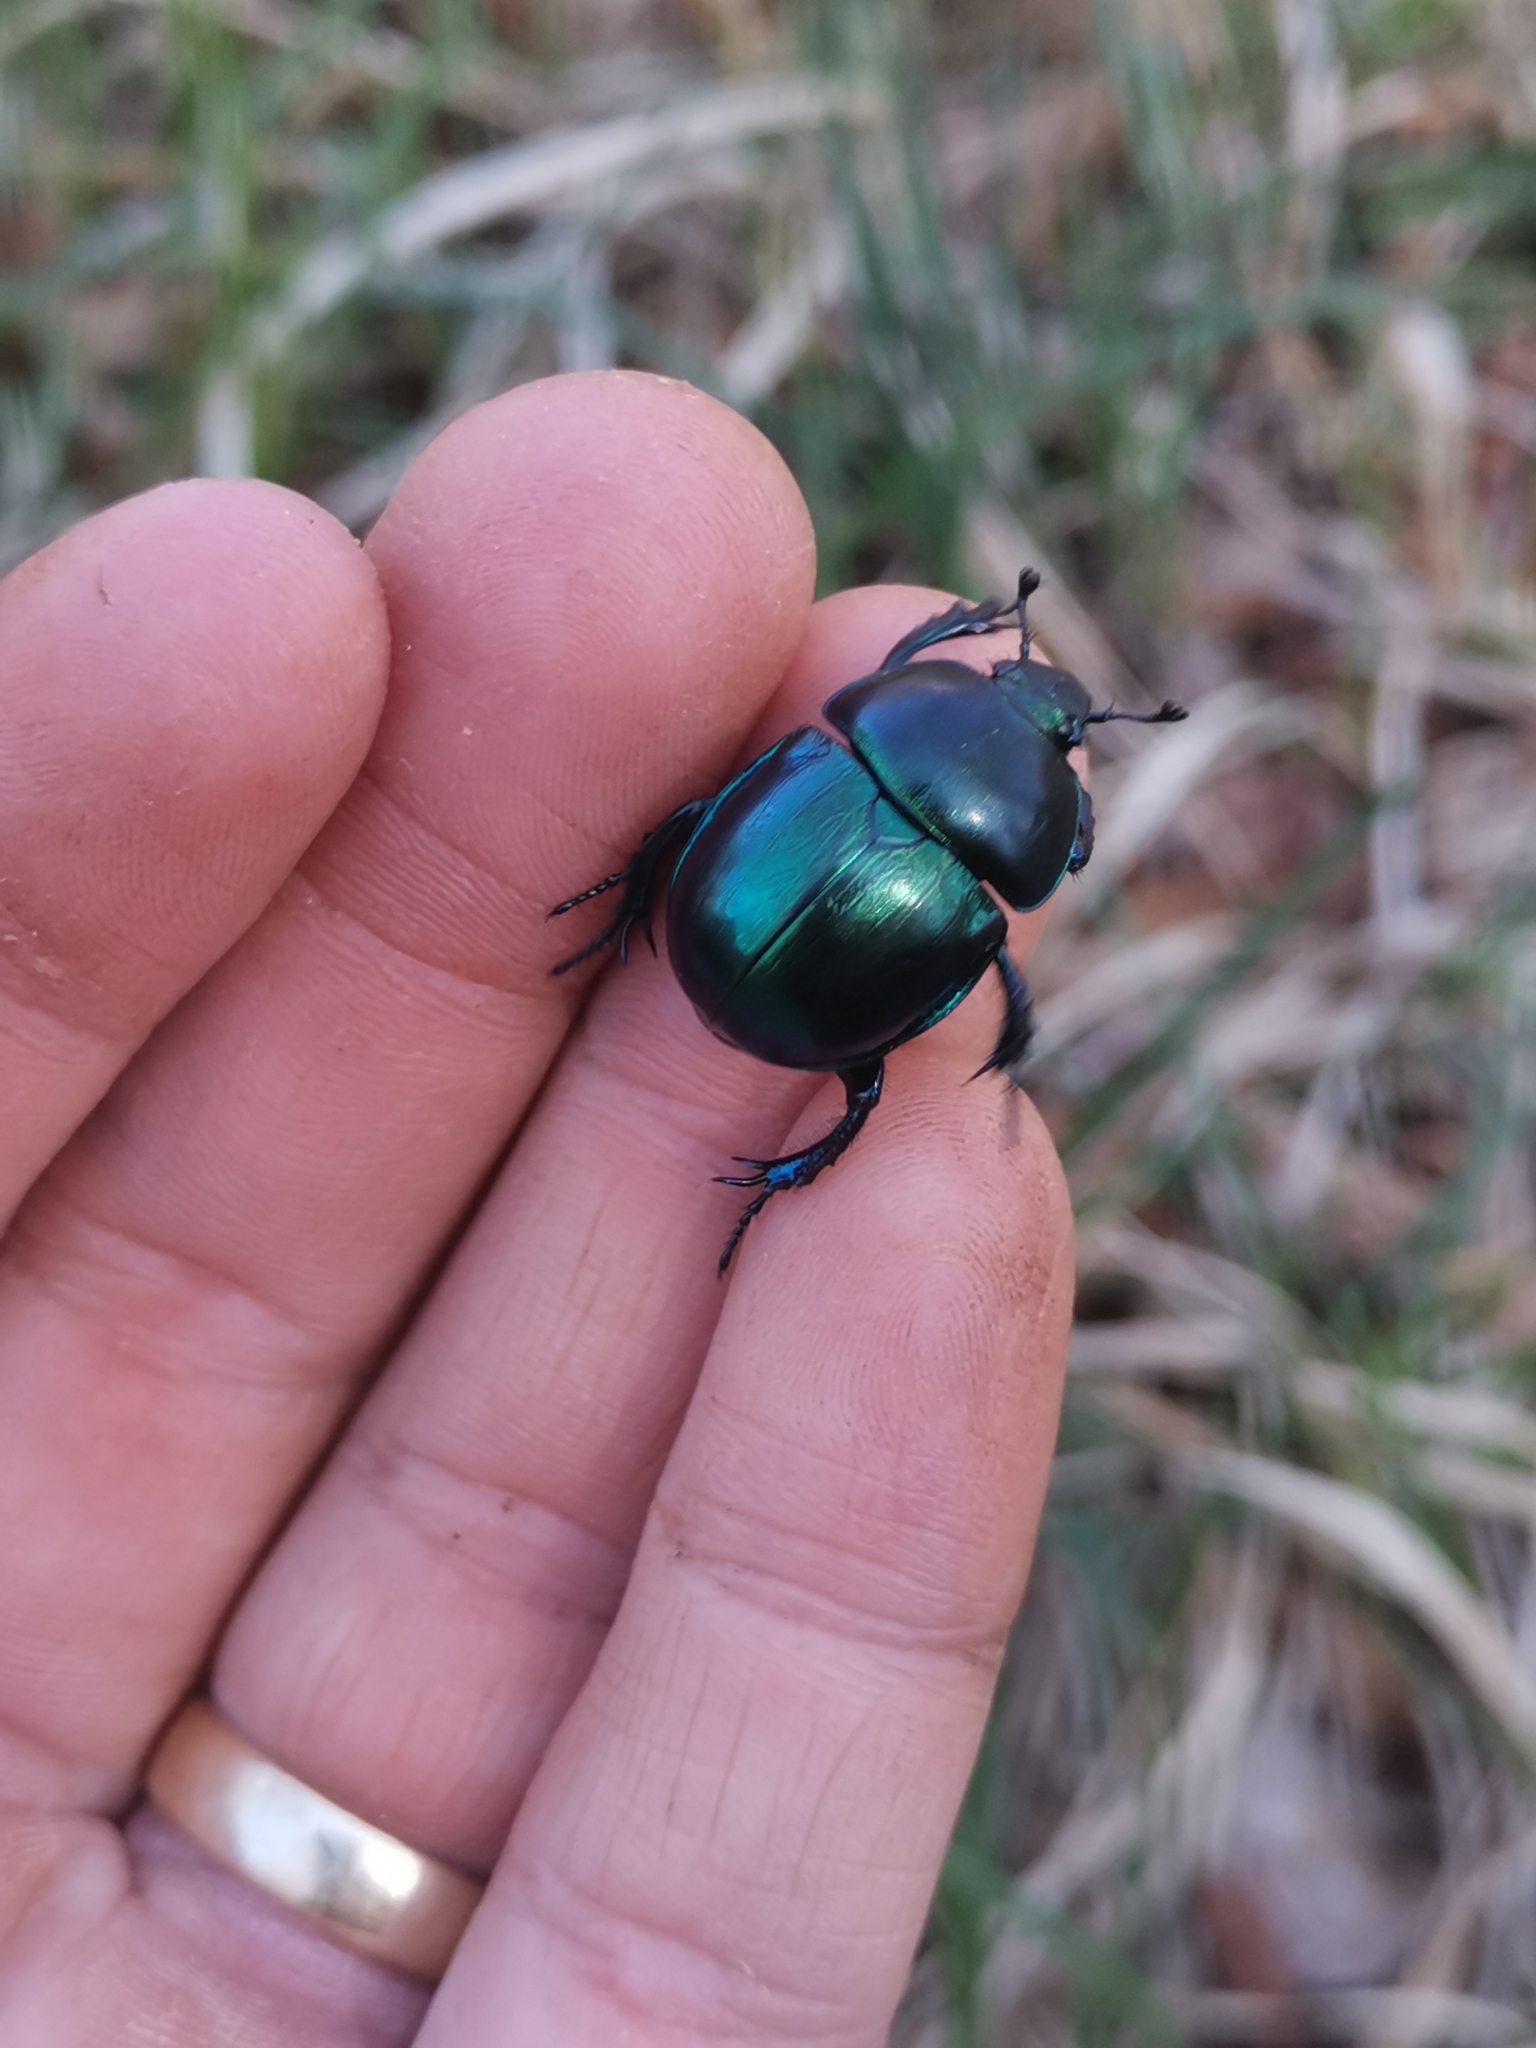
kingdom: Animalia
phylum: Arthropoda
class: Insecta
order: Coleoptera
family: Geotrupidae
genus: Trypocopris
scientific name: Trypocopris vernalis
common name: Spring dumbledor
